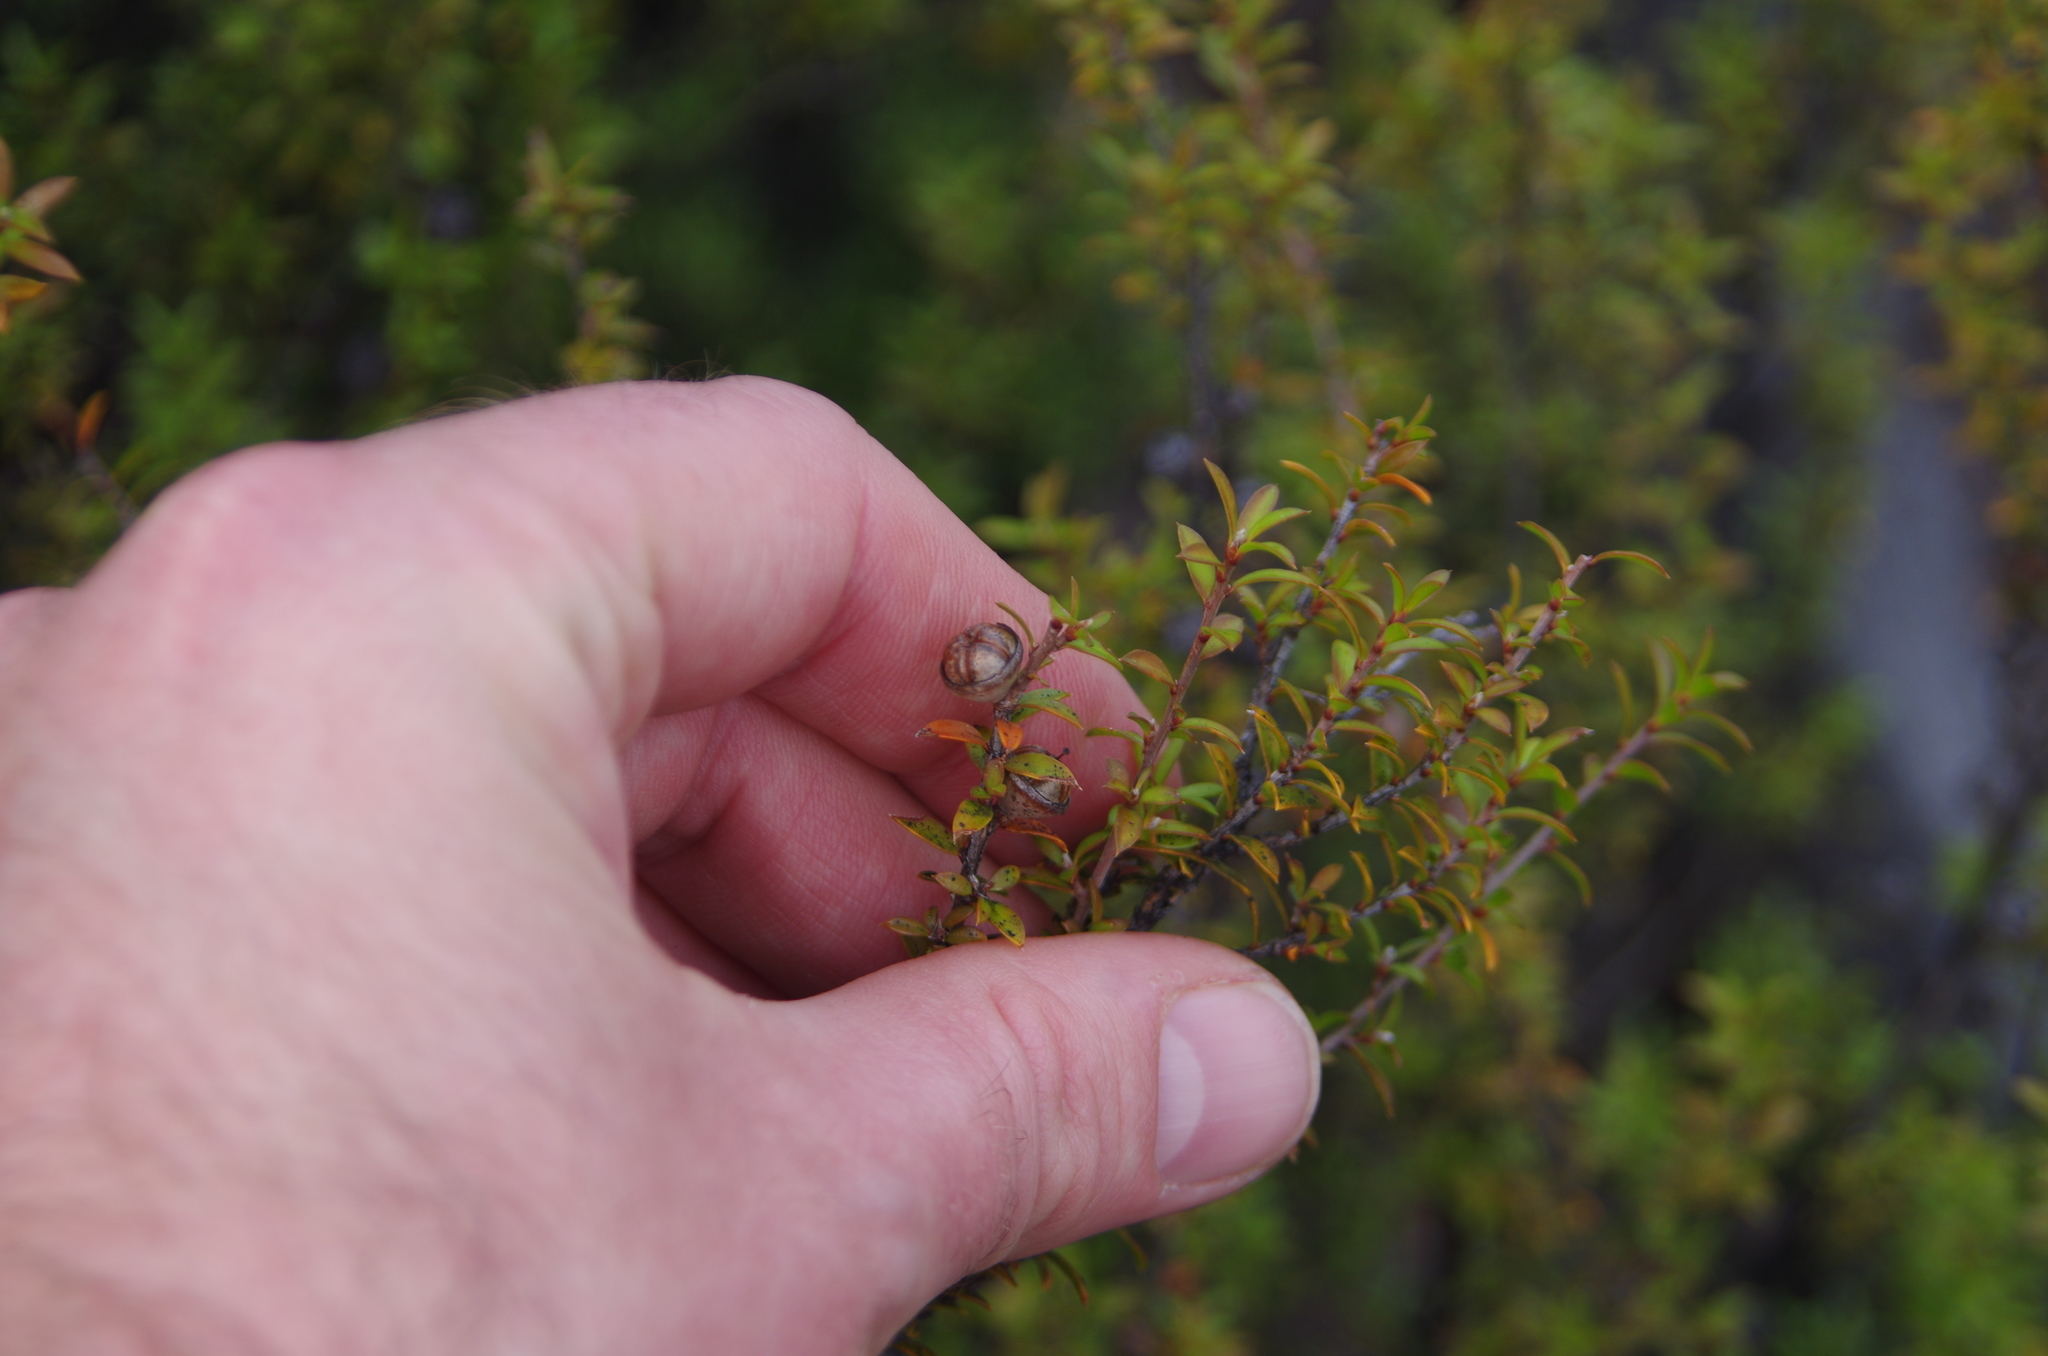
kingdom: Plantae
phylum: Tracheophyta
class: Magnoliopsida
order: Myrtales
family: Myrtaceae
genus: Leptospermum
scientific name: Leptospermum scoparium
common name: Broom tea-tree
